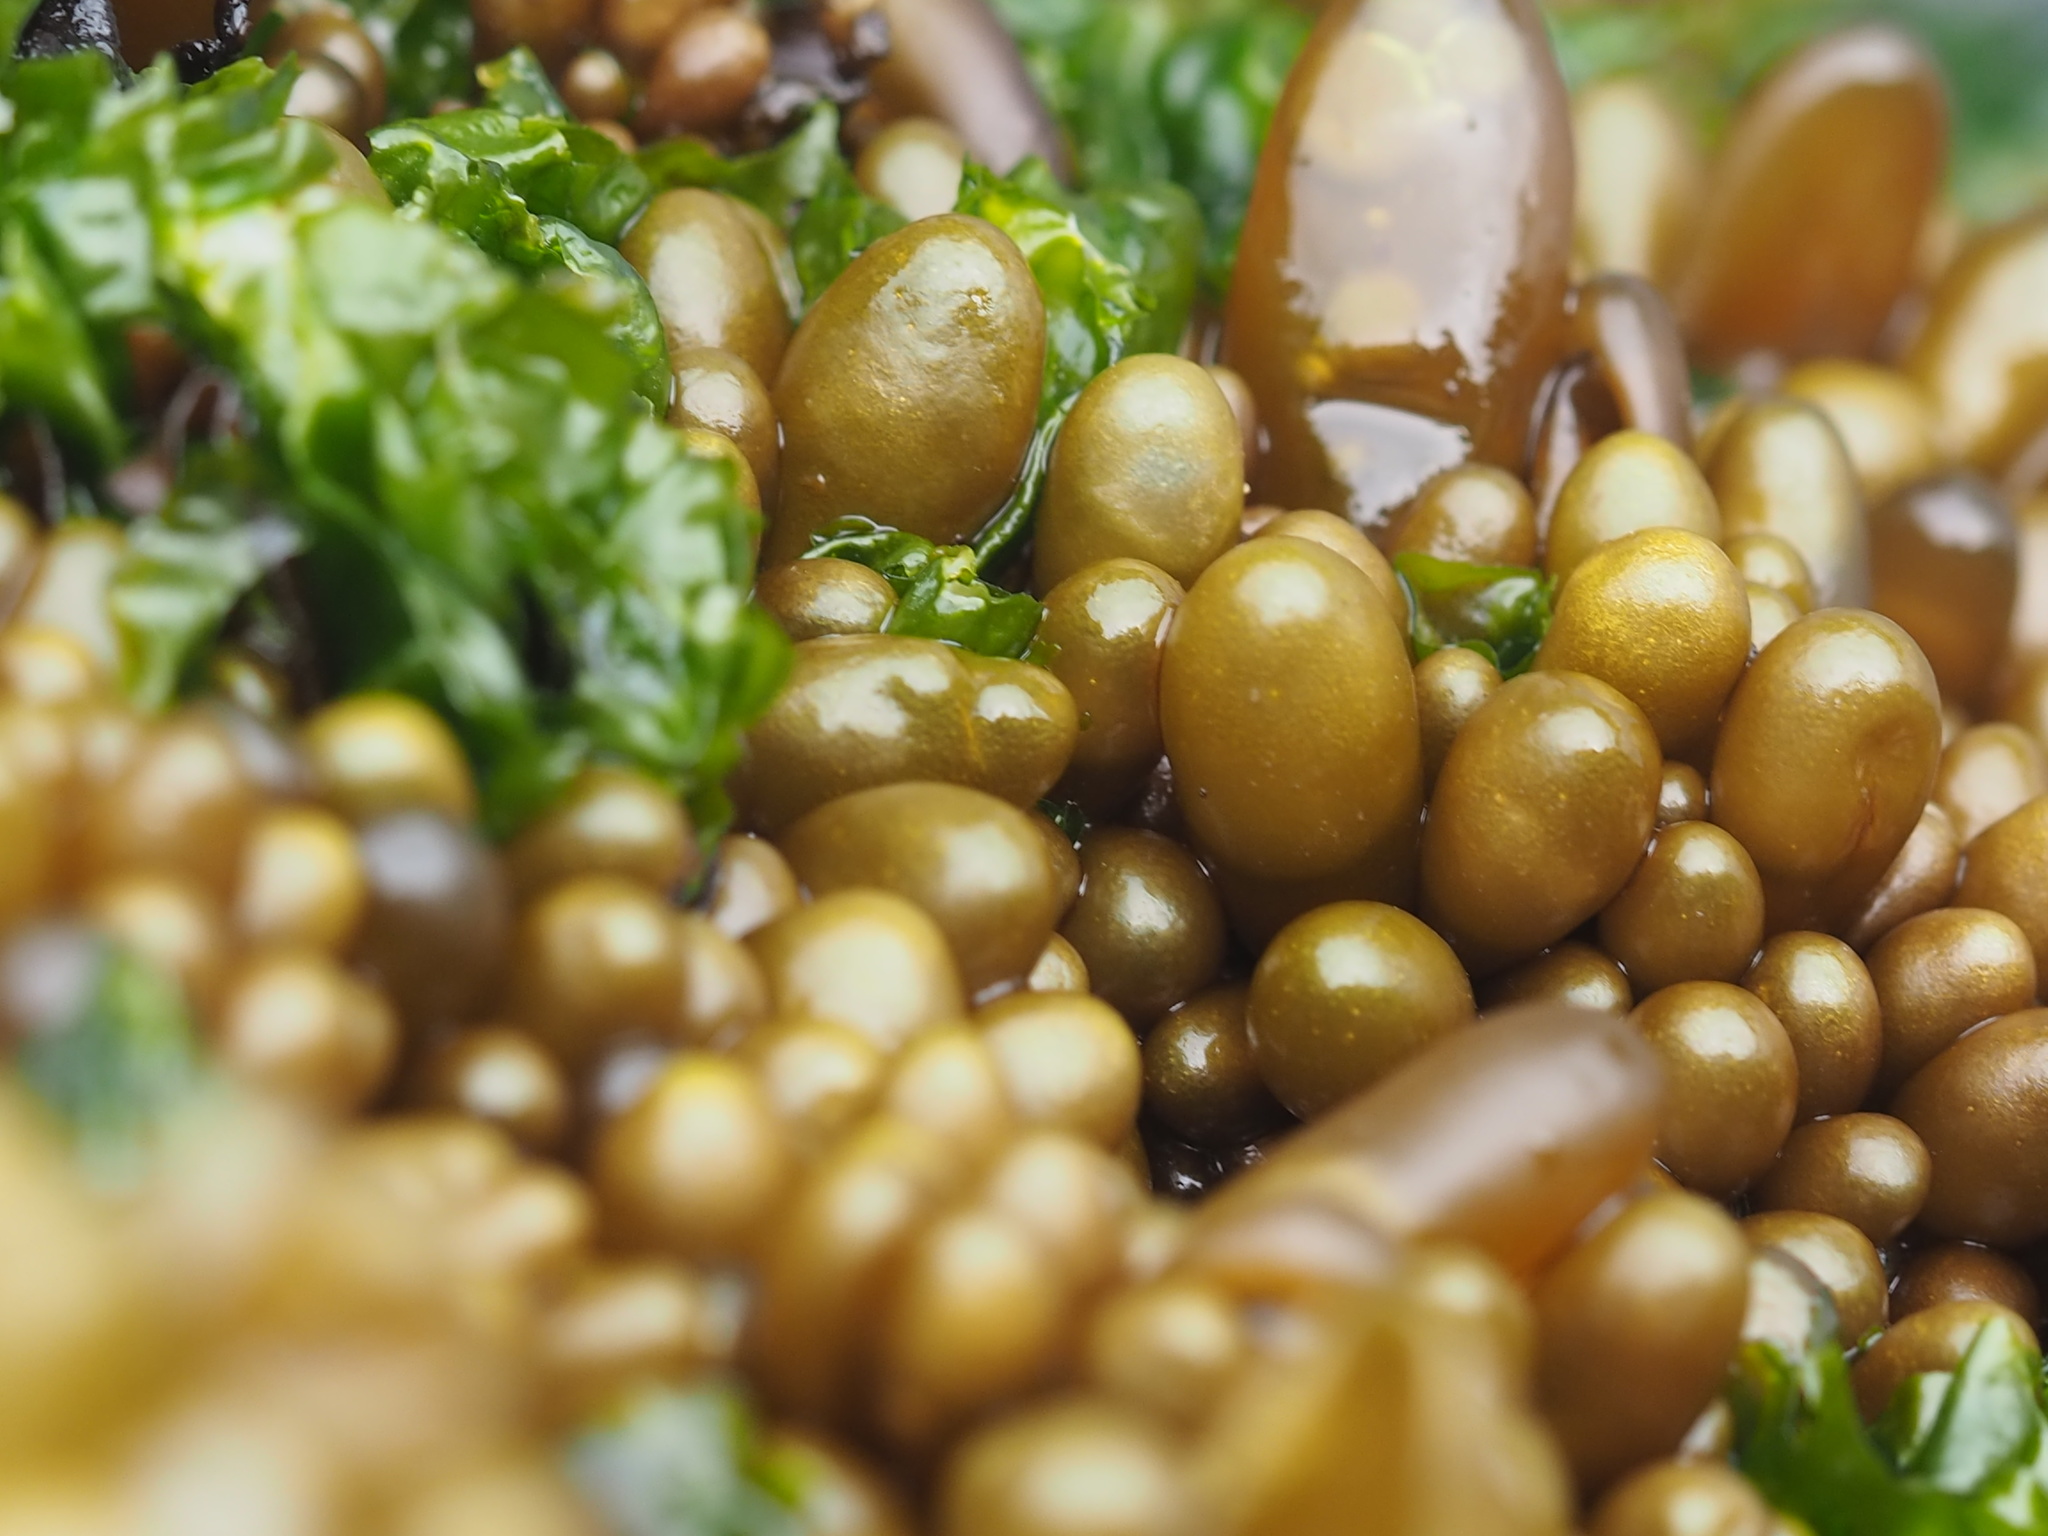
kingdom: Plantae
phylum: Rhodophyta
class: Florideophyceae
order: Palmariales
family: Palmariaceae
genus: Halosaccion
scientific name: Halosaccion glandiforme
